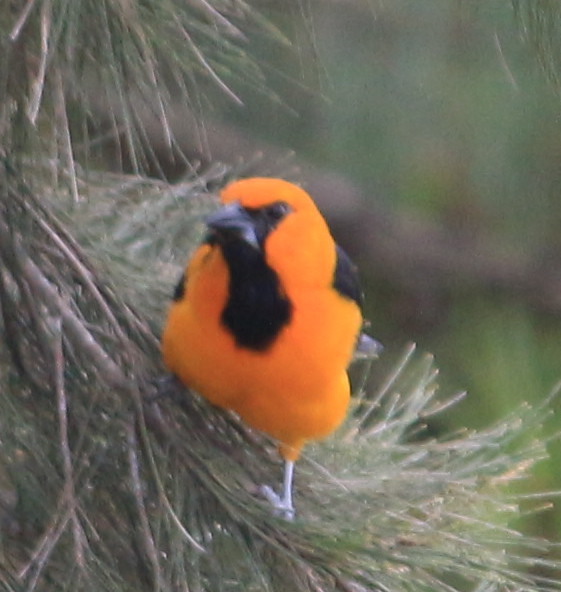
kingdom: Animalia
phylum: Chordata
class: Aves
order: Passeriformes
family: Icteridae
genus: Icterus
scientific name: Icterus gularis
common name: Altamira oriole
